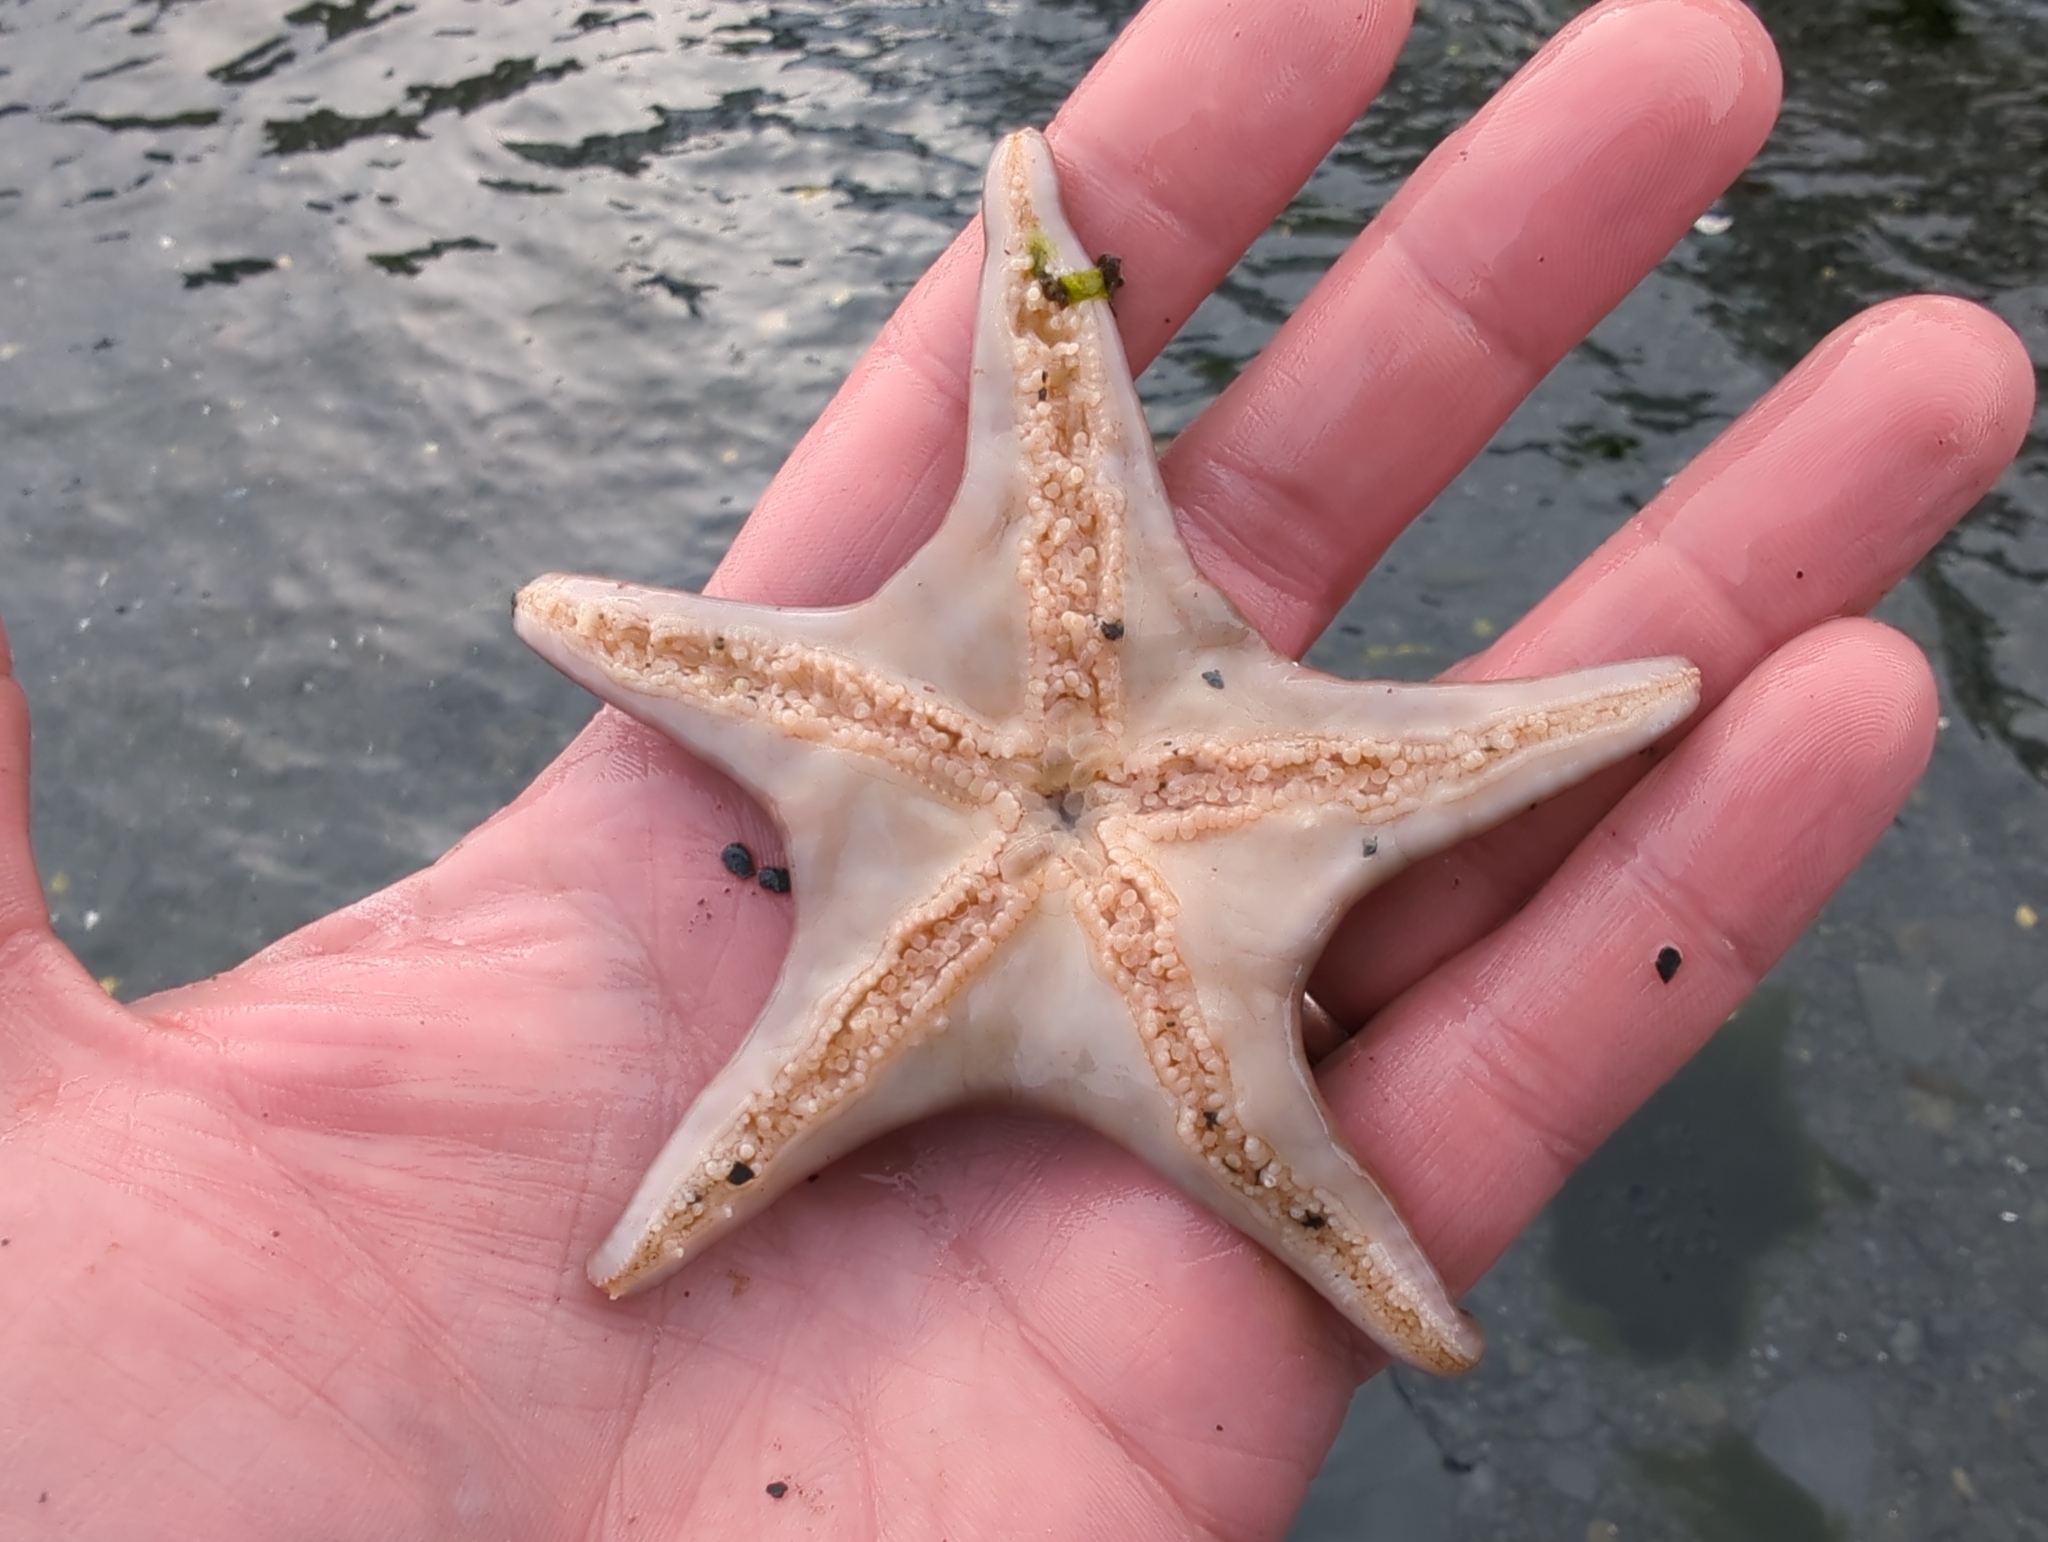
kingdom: Animalia
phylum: Echinodermata
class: Asteroidea
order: Valvatida
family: Asteropseidae
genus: Dermasterias
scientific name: Dermasterias imbricata
